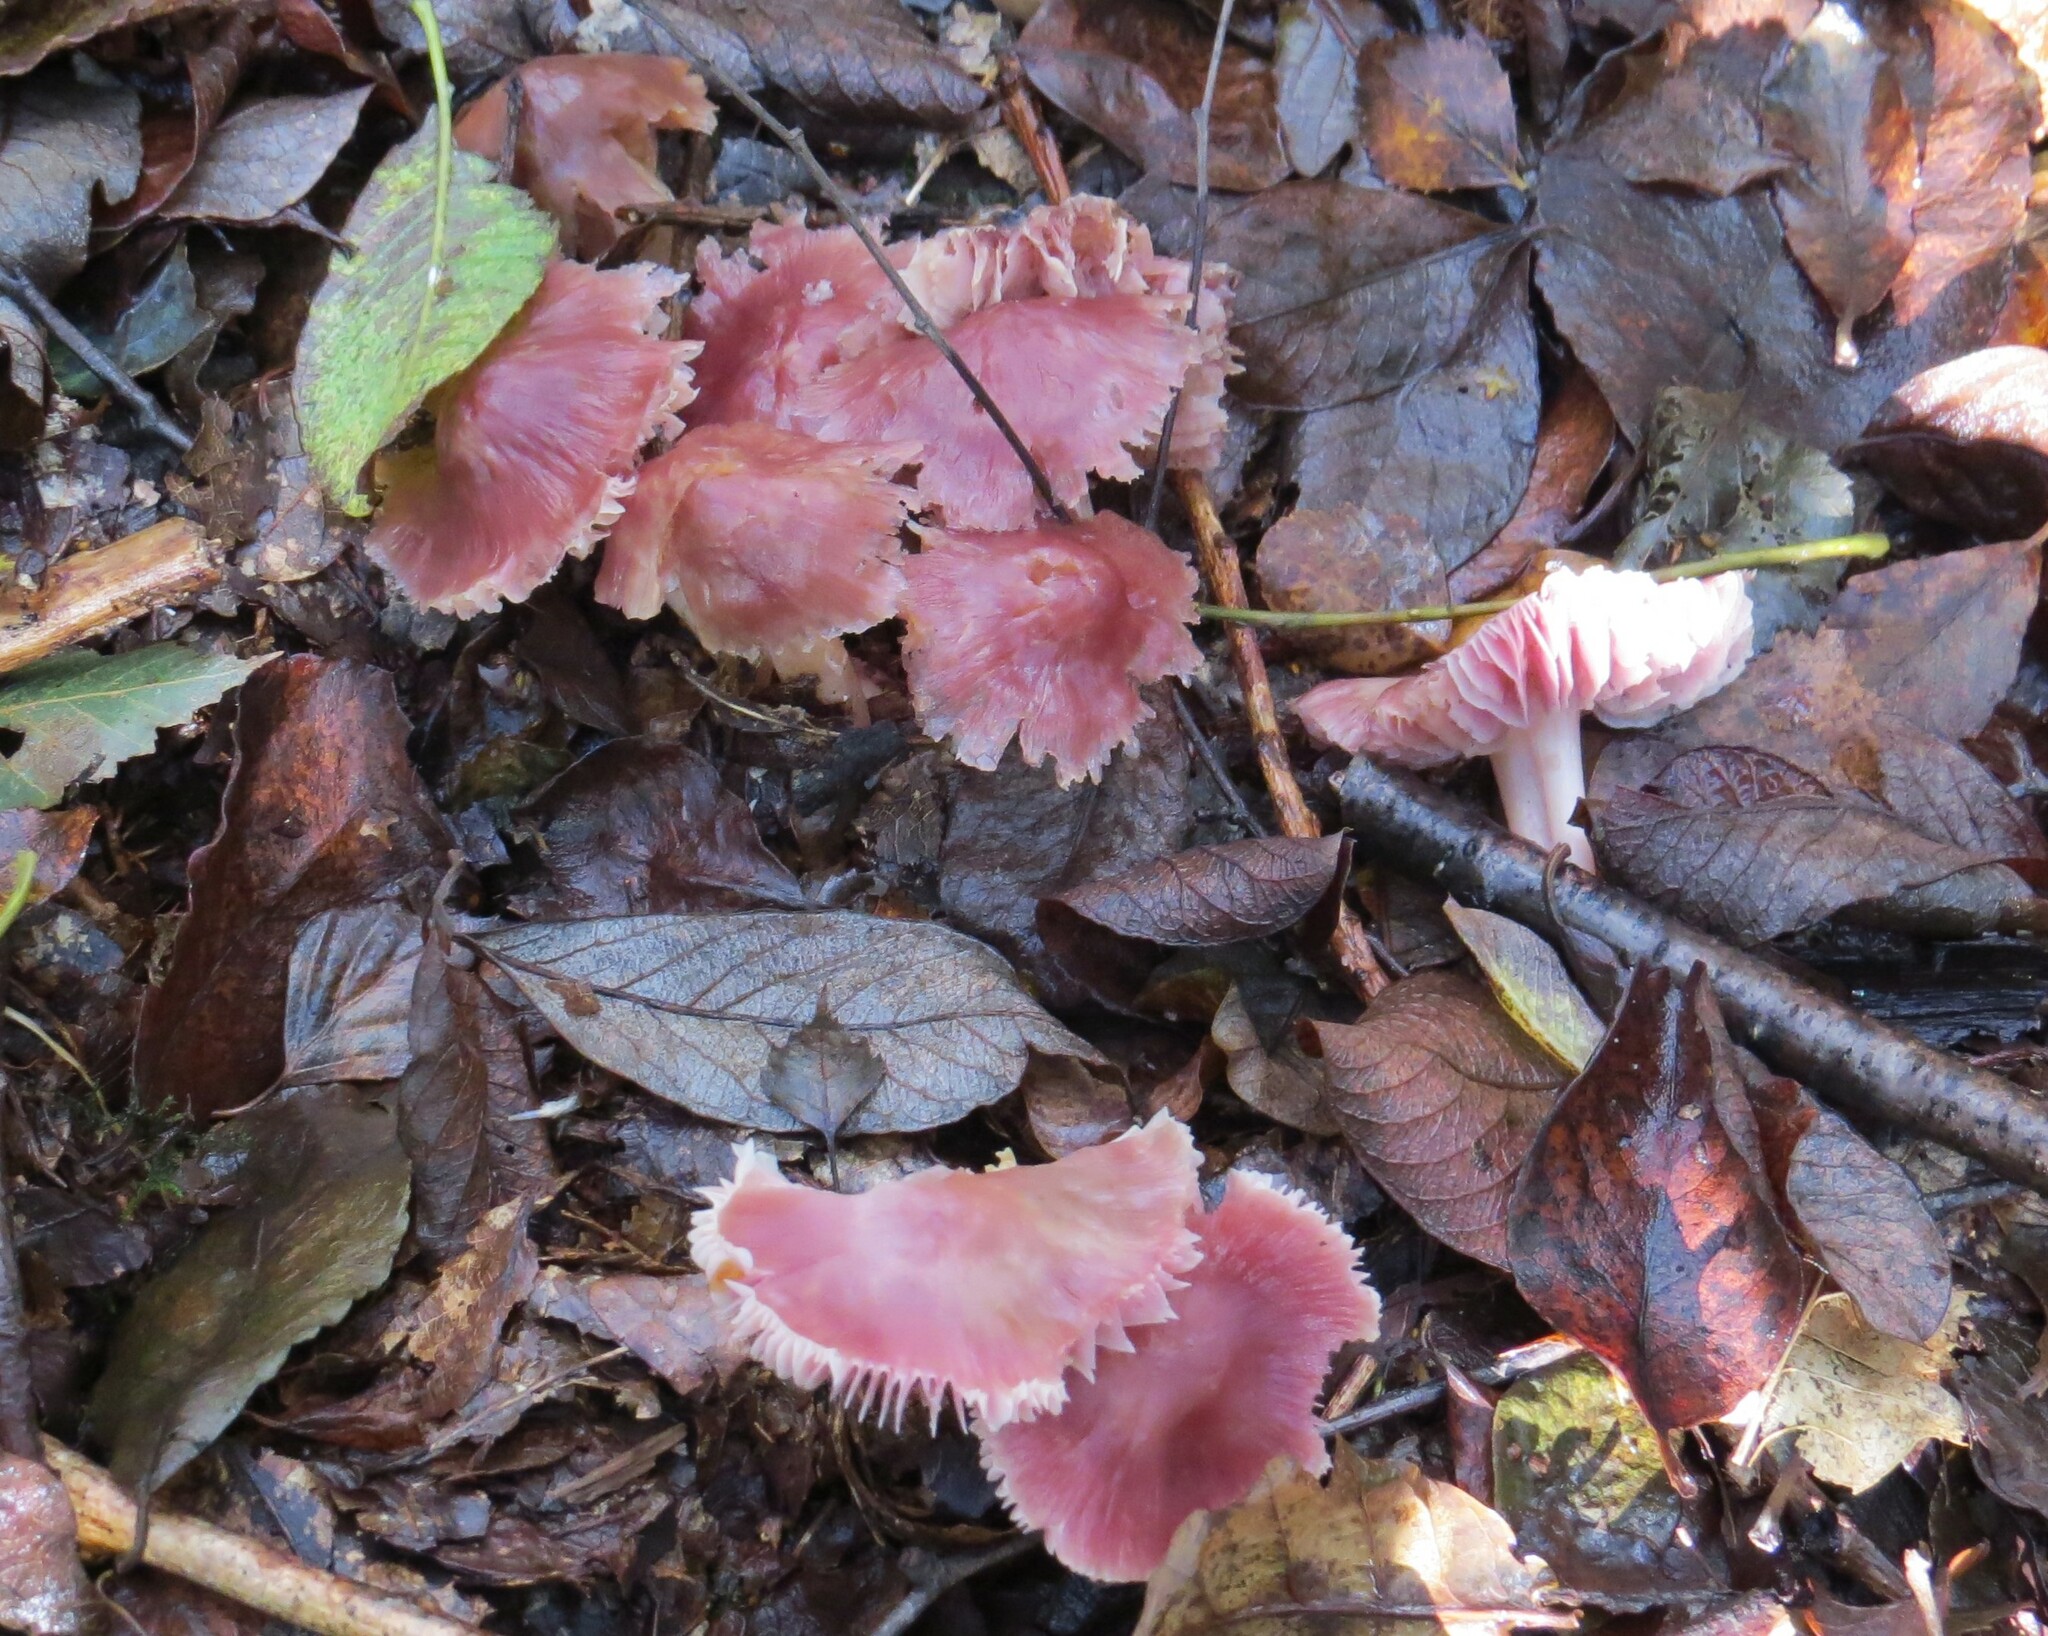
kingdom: Fungi
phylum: Basidiomycota
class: Agaricomycetes
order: Agaricales
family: Mycenaceae
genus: Mycena
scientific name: Mycena rosea
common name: Rosy bonnet
